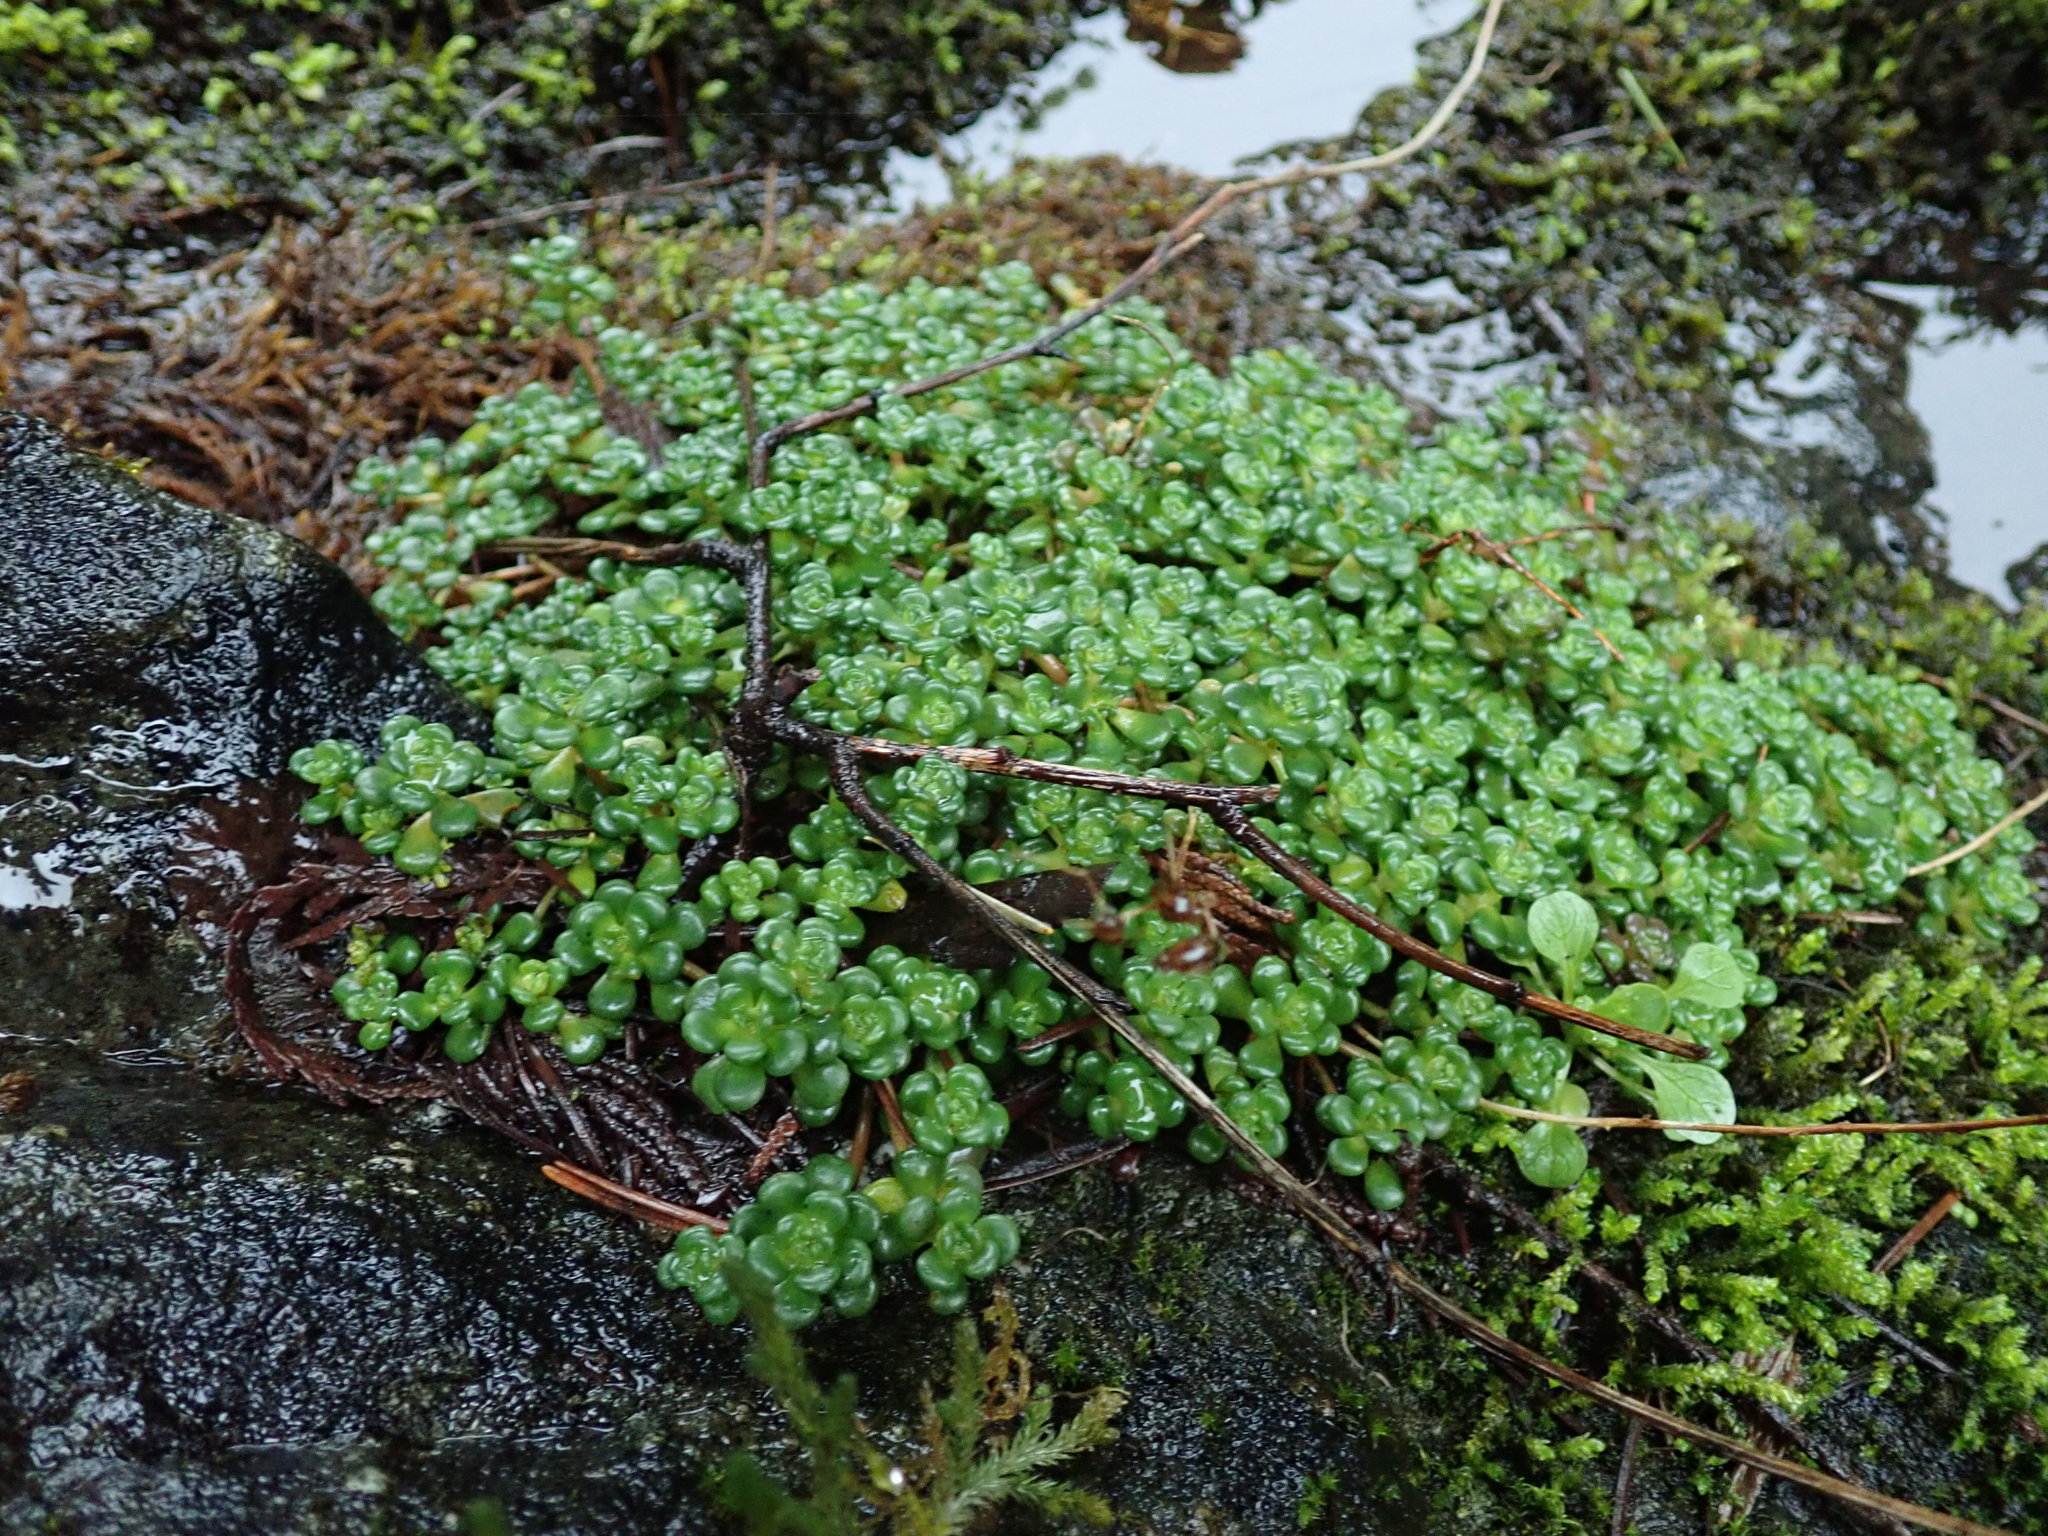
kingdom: Plantae
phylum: Tracheophyta
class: Magnoliopsida
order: Saxifragales
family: Crassulaceae
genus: Sedum
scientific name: Sedum oreganum
